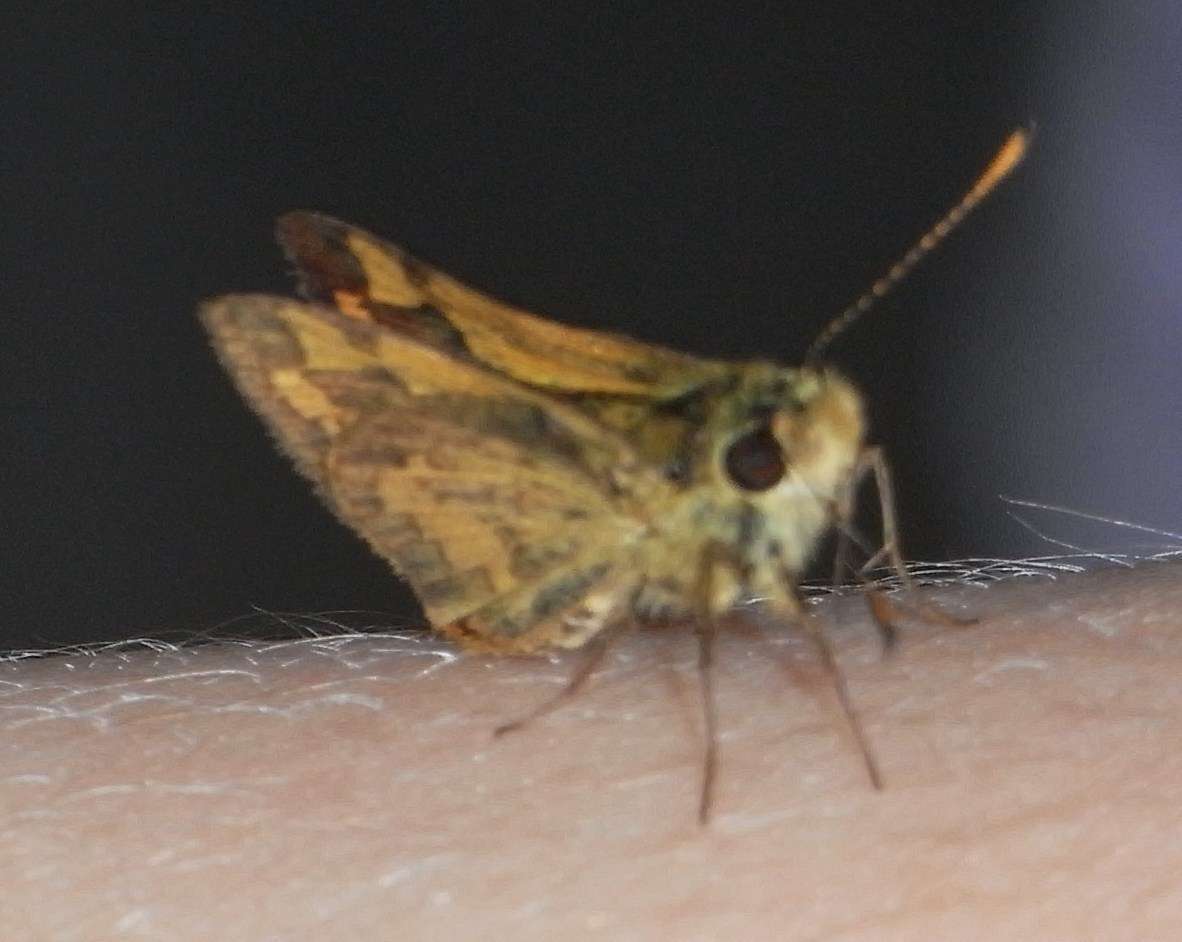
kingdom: Animalia
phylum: Arthropoda
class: Insecta
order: Lepidoptera
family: Hesperiidae
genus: Ocybadistes
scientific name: Ocybadistes walkeri
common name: Yellow-banded dart
